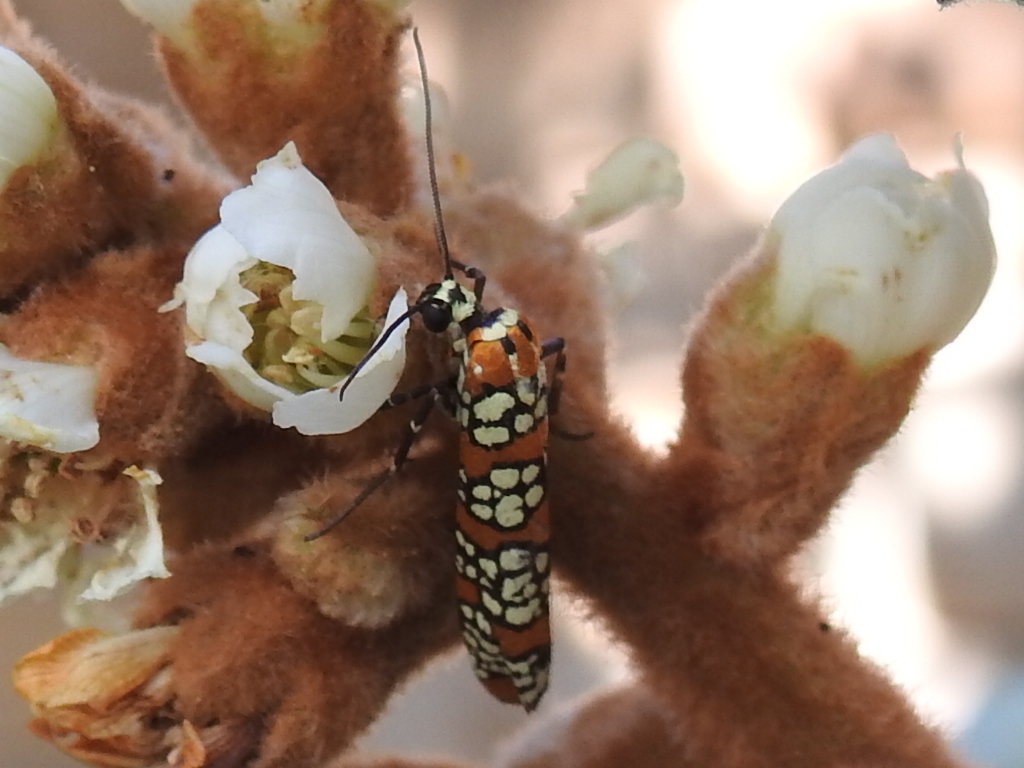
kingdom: Animalia
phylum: Arthropoda
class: Insecta
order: Lepidoptera
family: Attevidae
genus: Atteva
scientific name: Atteva punctella
